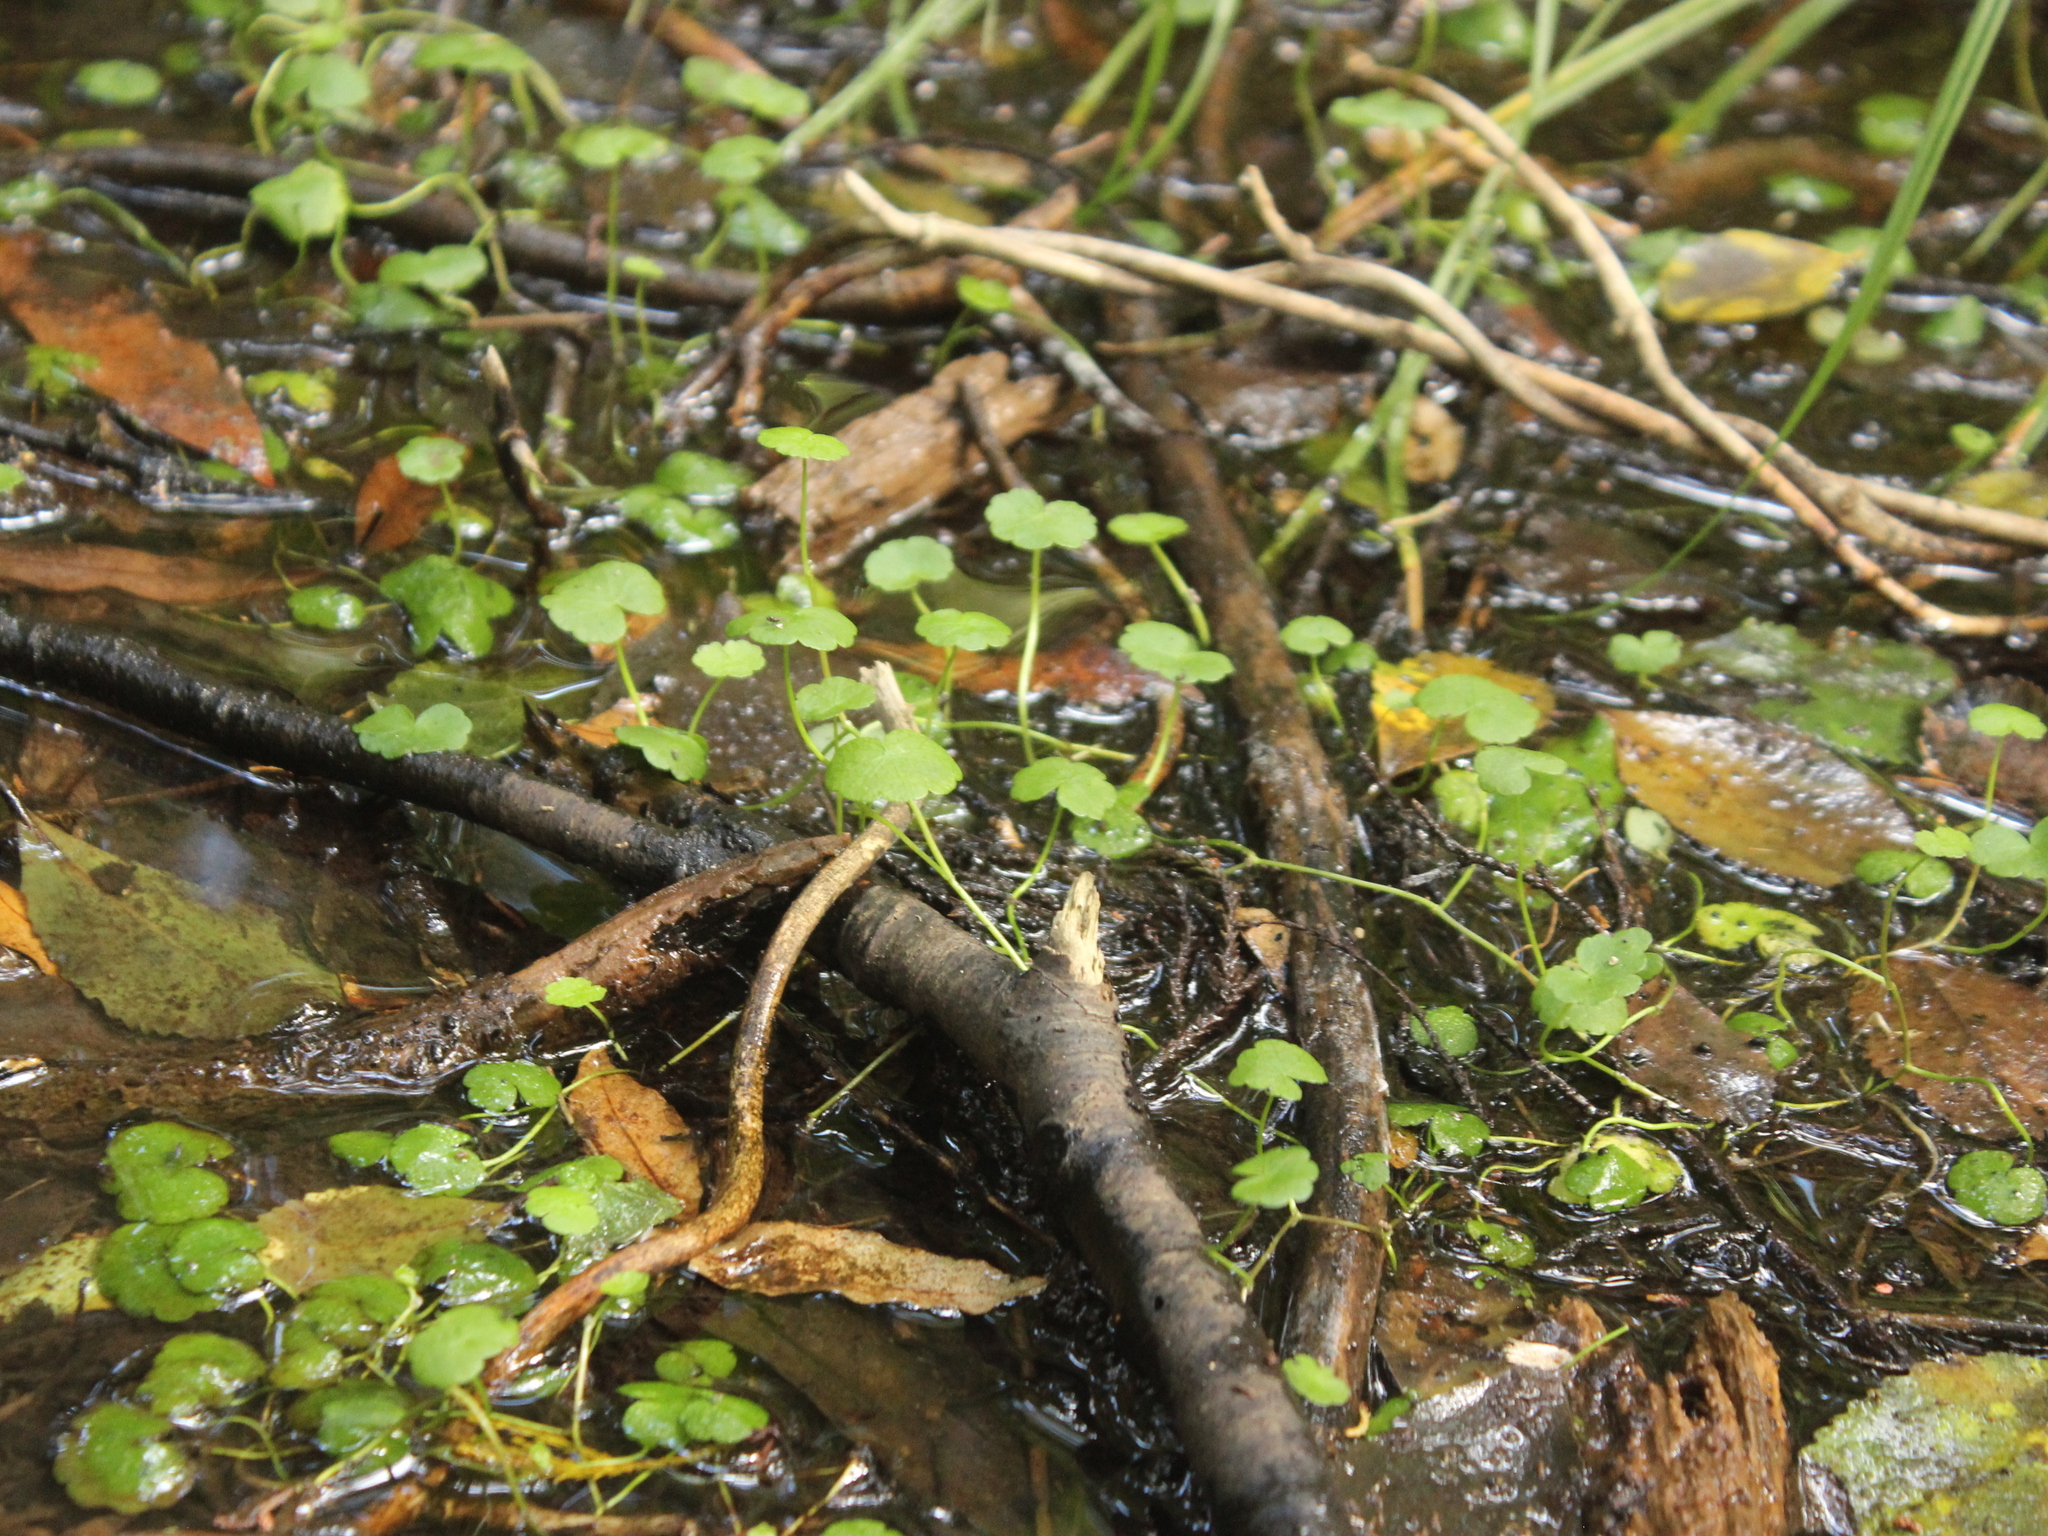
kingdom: Plantae
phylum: Tracheophyta
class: Magnoliopsida
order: Apiales
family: Araliaceae
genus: Hydrocotyle
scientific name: Hydrocotyle heteromeria
